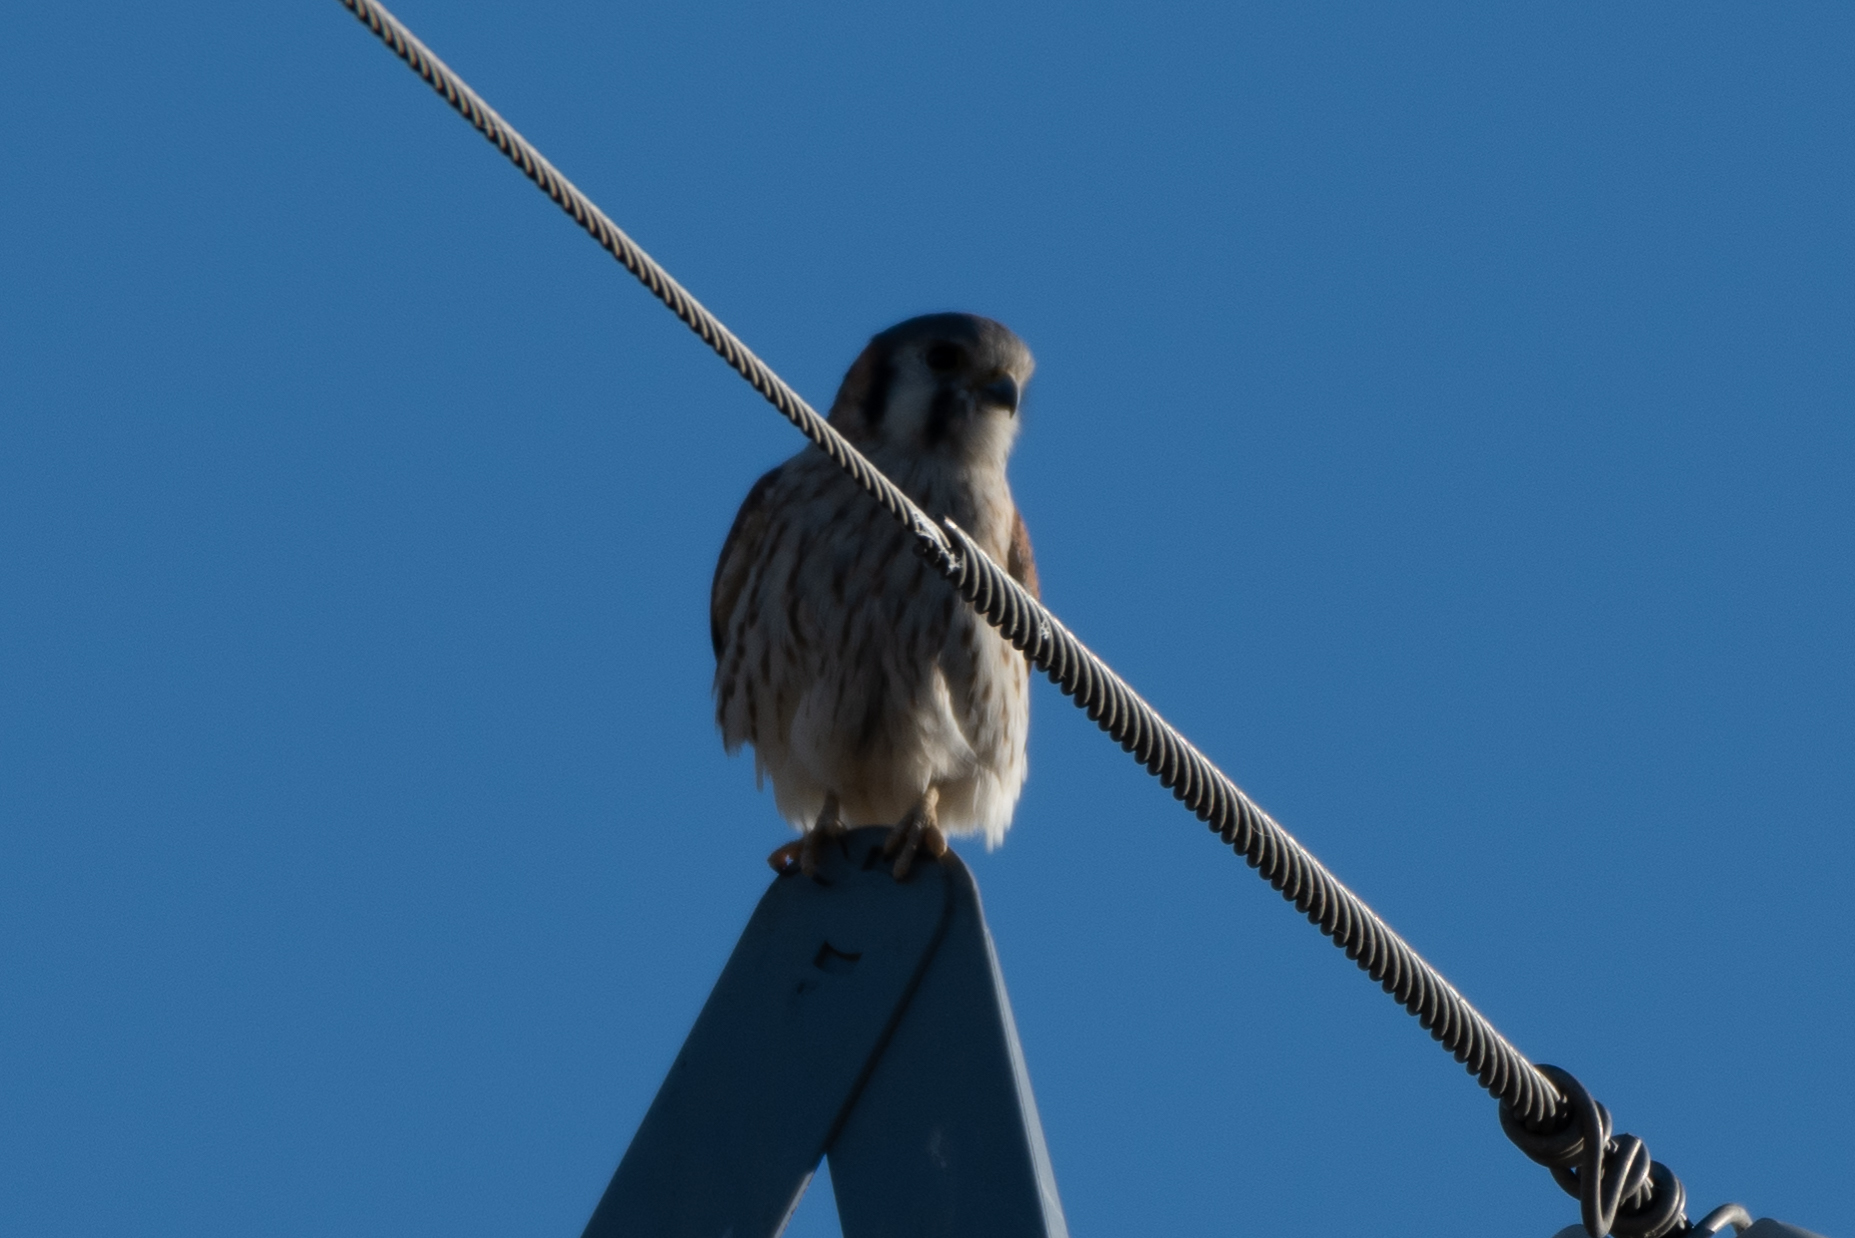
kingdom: Animalia
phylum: Chordata
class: Aves
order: Falconiformes
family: Falconidae
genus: Falco
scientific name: Falco sparverius
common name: American kestrel
